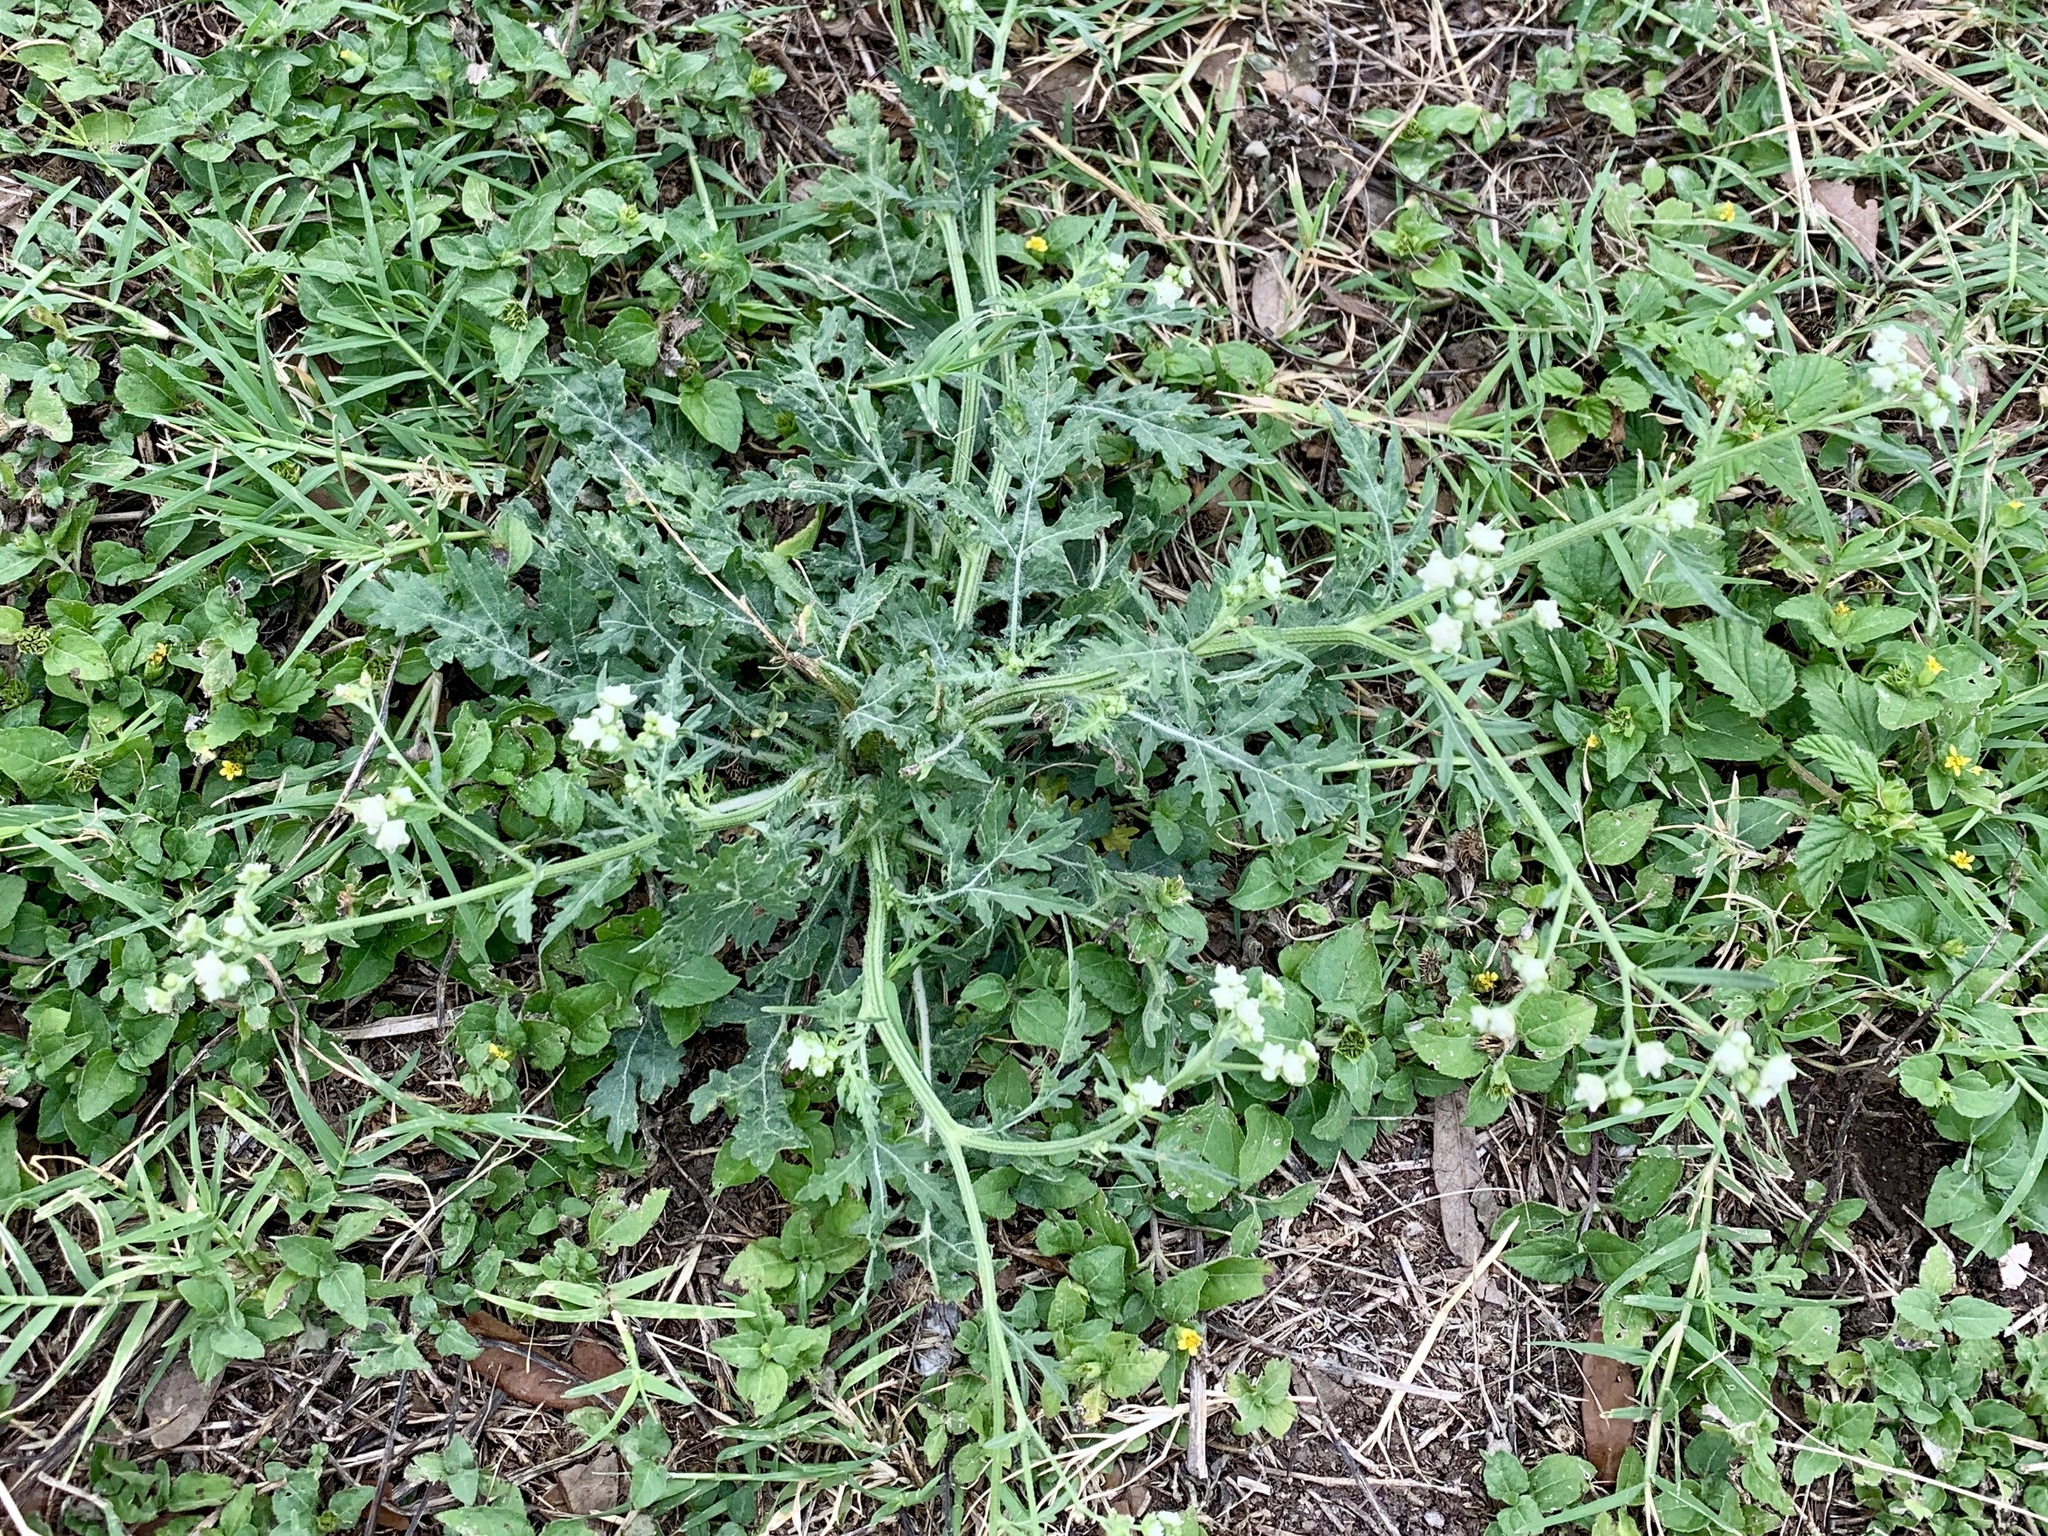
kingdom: Plantae
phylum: Tracheophyta
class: Magnoliopsida
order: Asterales
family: Asteraceae
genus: Parthenium
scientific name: Parthenium hysterophorus
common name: Santa maria feverfew
